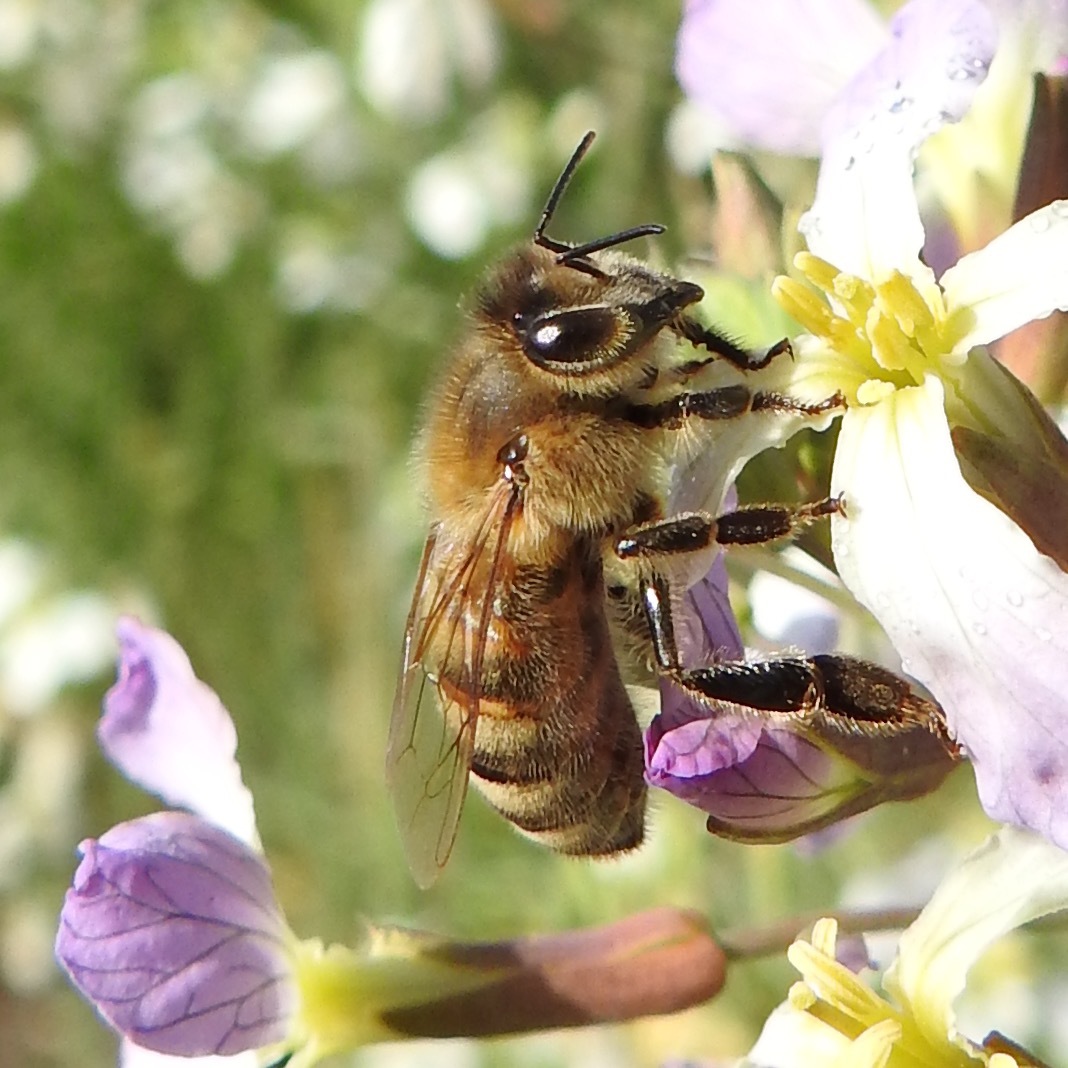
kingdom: Animalia
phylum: Arthropoda
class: Insecta
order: Hymenoptera
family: Apidae
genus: Apis
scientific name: Apis mellifera
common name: Honey bee
